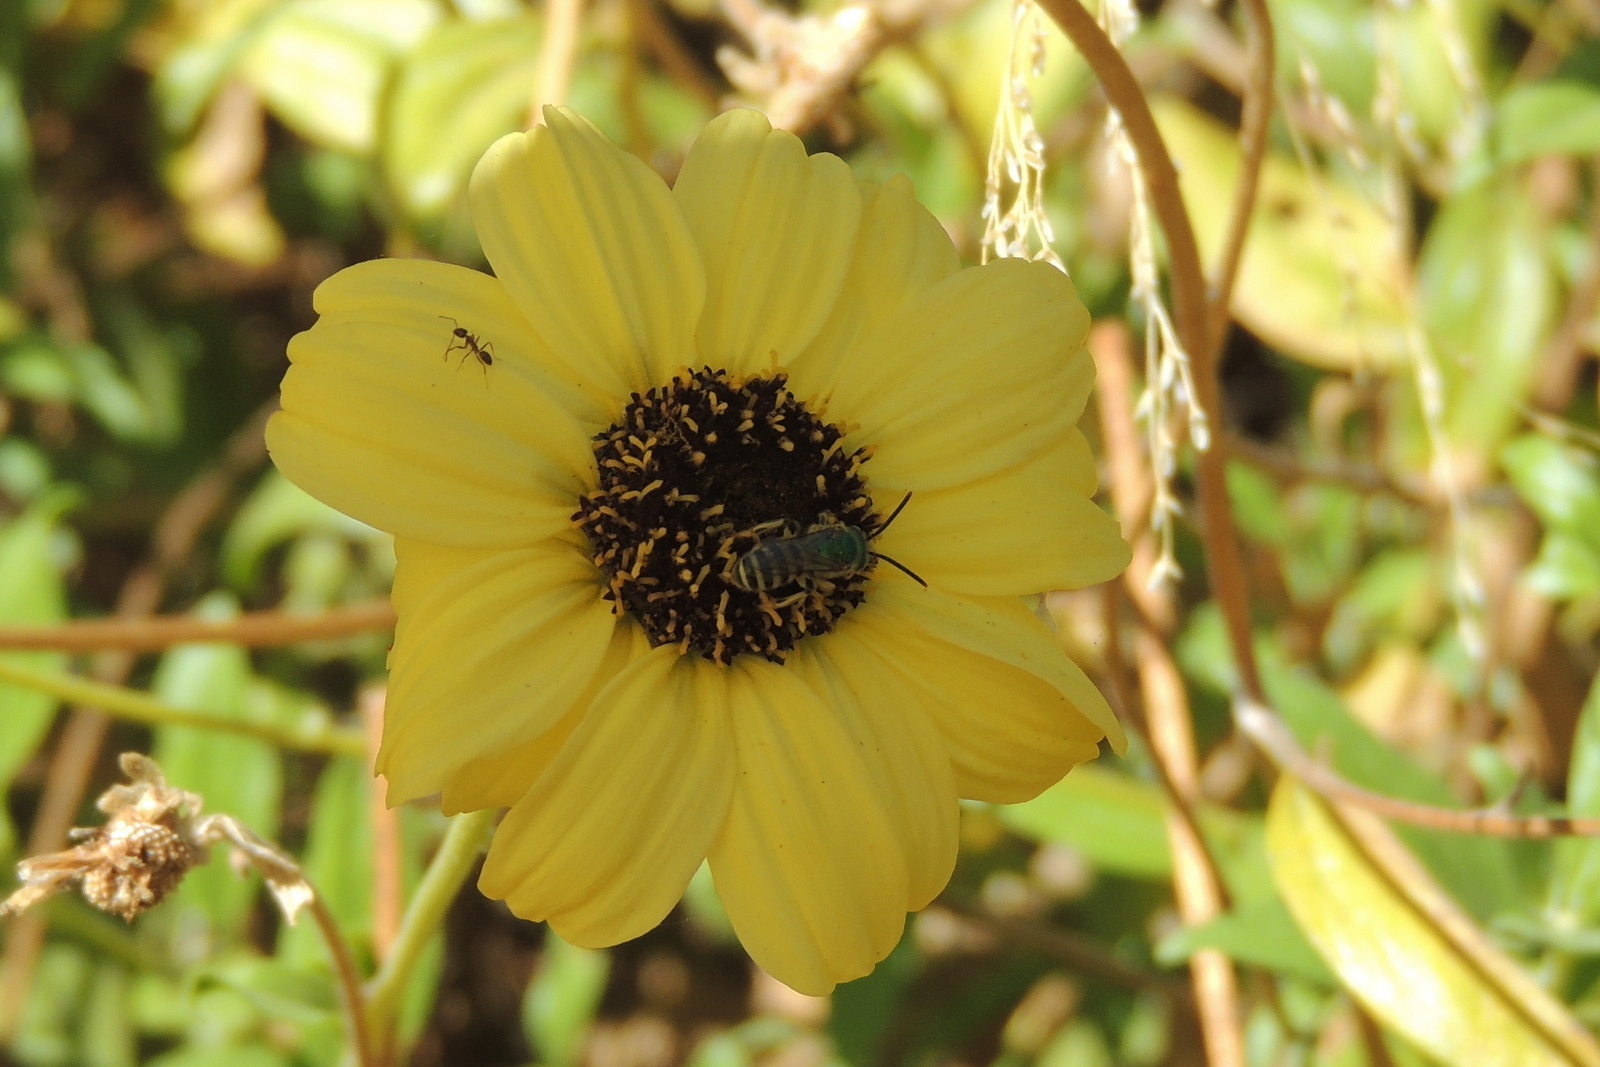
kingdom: Animalia
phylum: Arthropoda
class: Insecta
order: Hymenoptera
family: Formicidae
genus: Linepithema
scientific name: Linepithema humile
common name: Argentine ant
